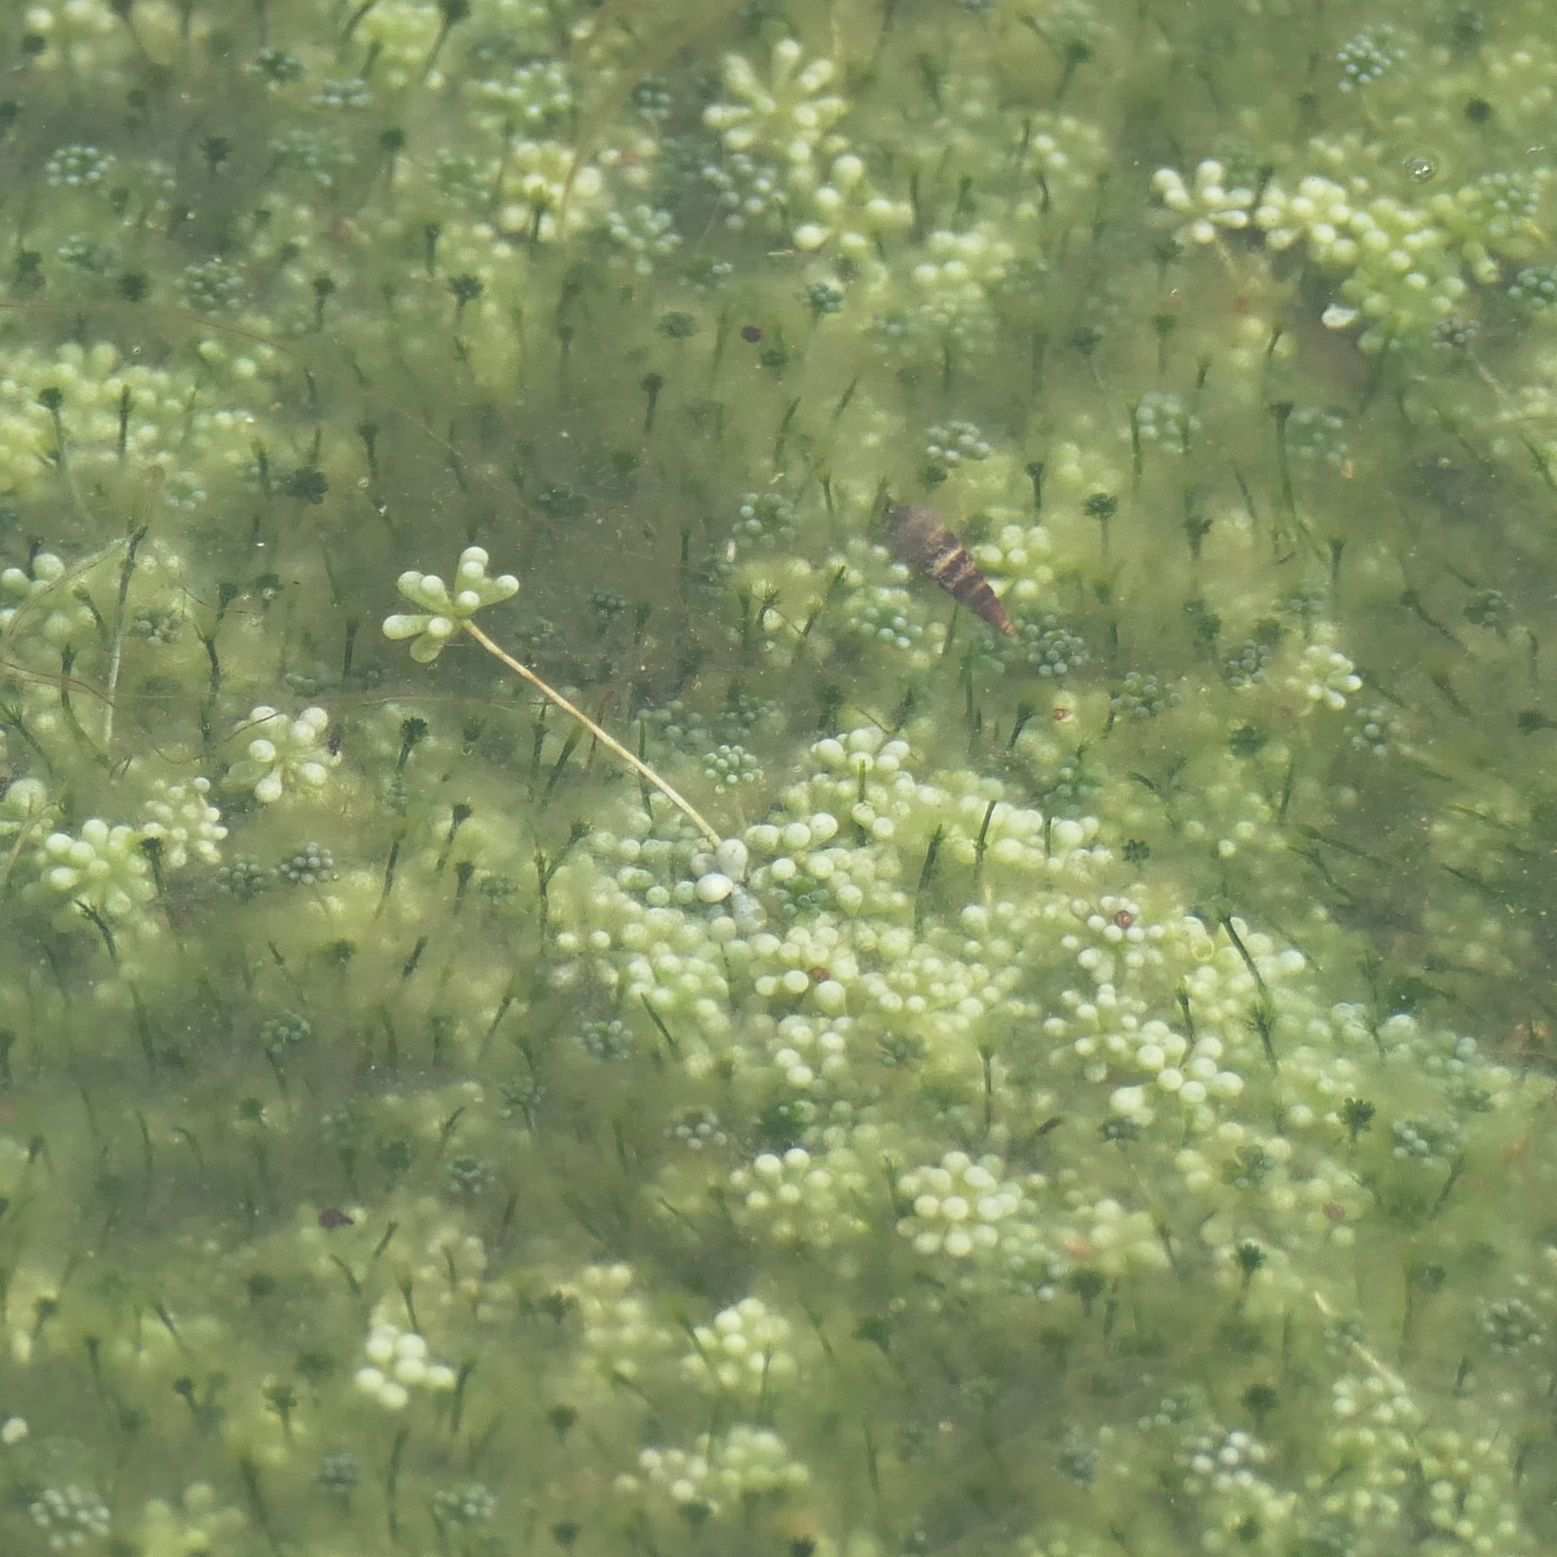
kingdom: Plantae
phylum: Chlorophyta
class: Ulvophyceae
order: Dasycladales
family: Polyphysaceae
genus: Acetabularia
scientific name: Acetabularia peniculus
